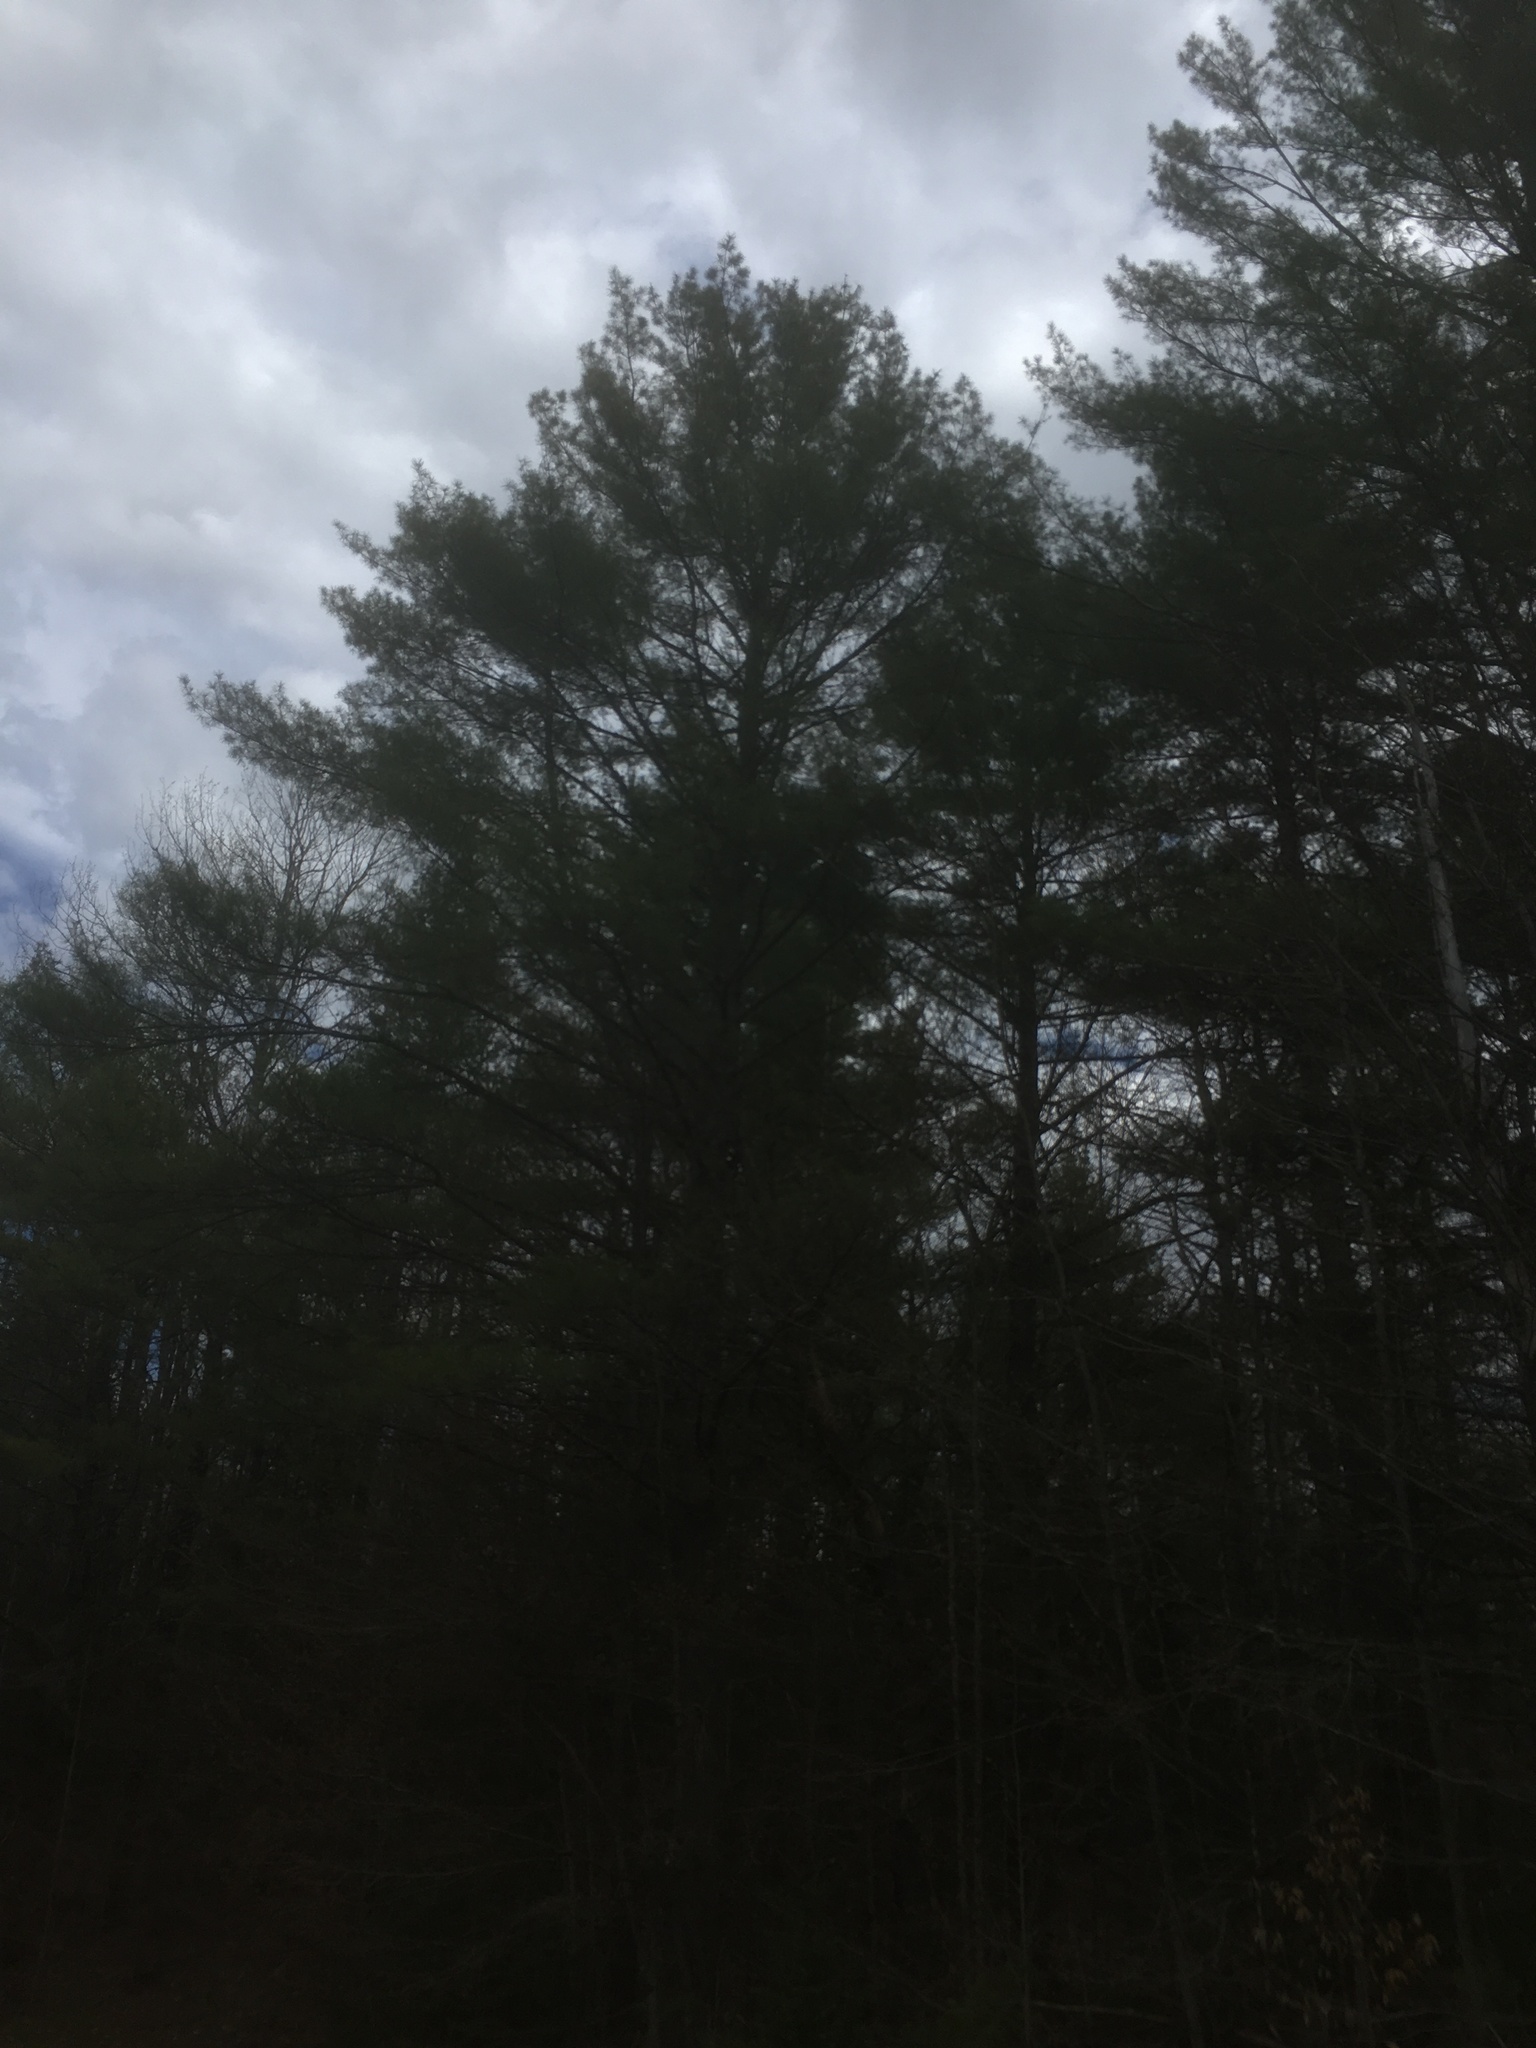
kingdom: Plantae
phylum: Tracheophyta
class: Pinopsida
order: Pinales
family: Pinaceae
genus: Pinus
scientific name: Pinus strobus
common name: Weymouth pine
